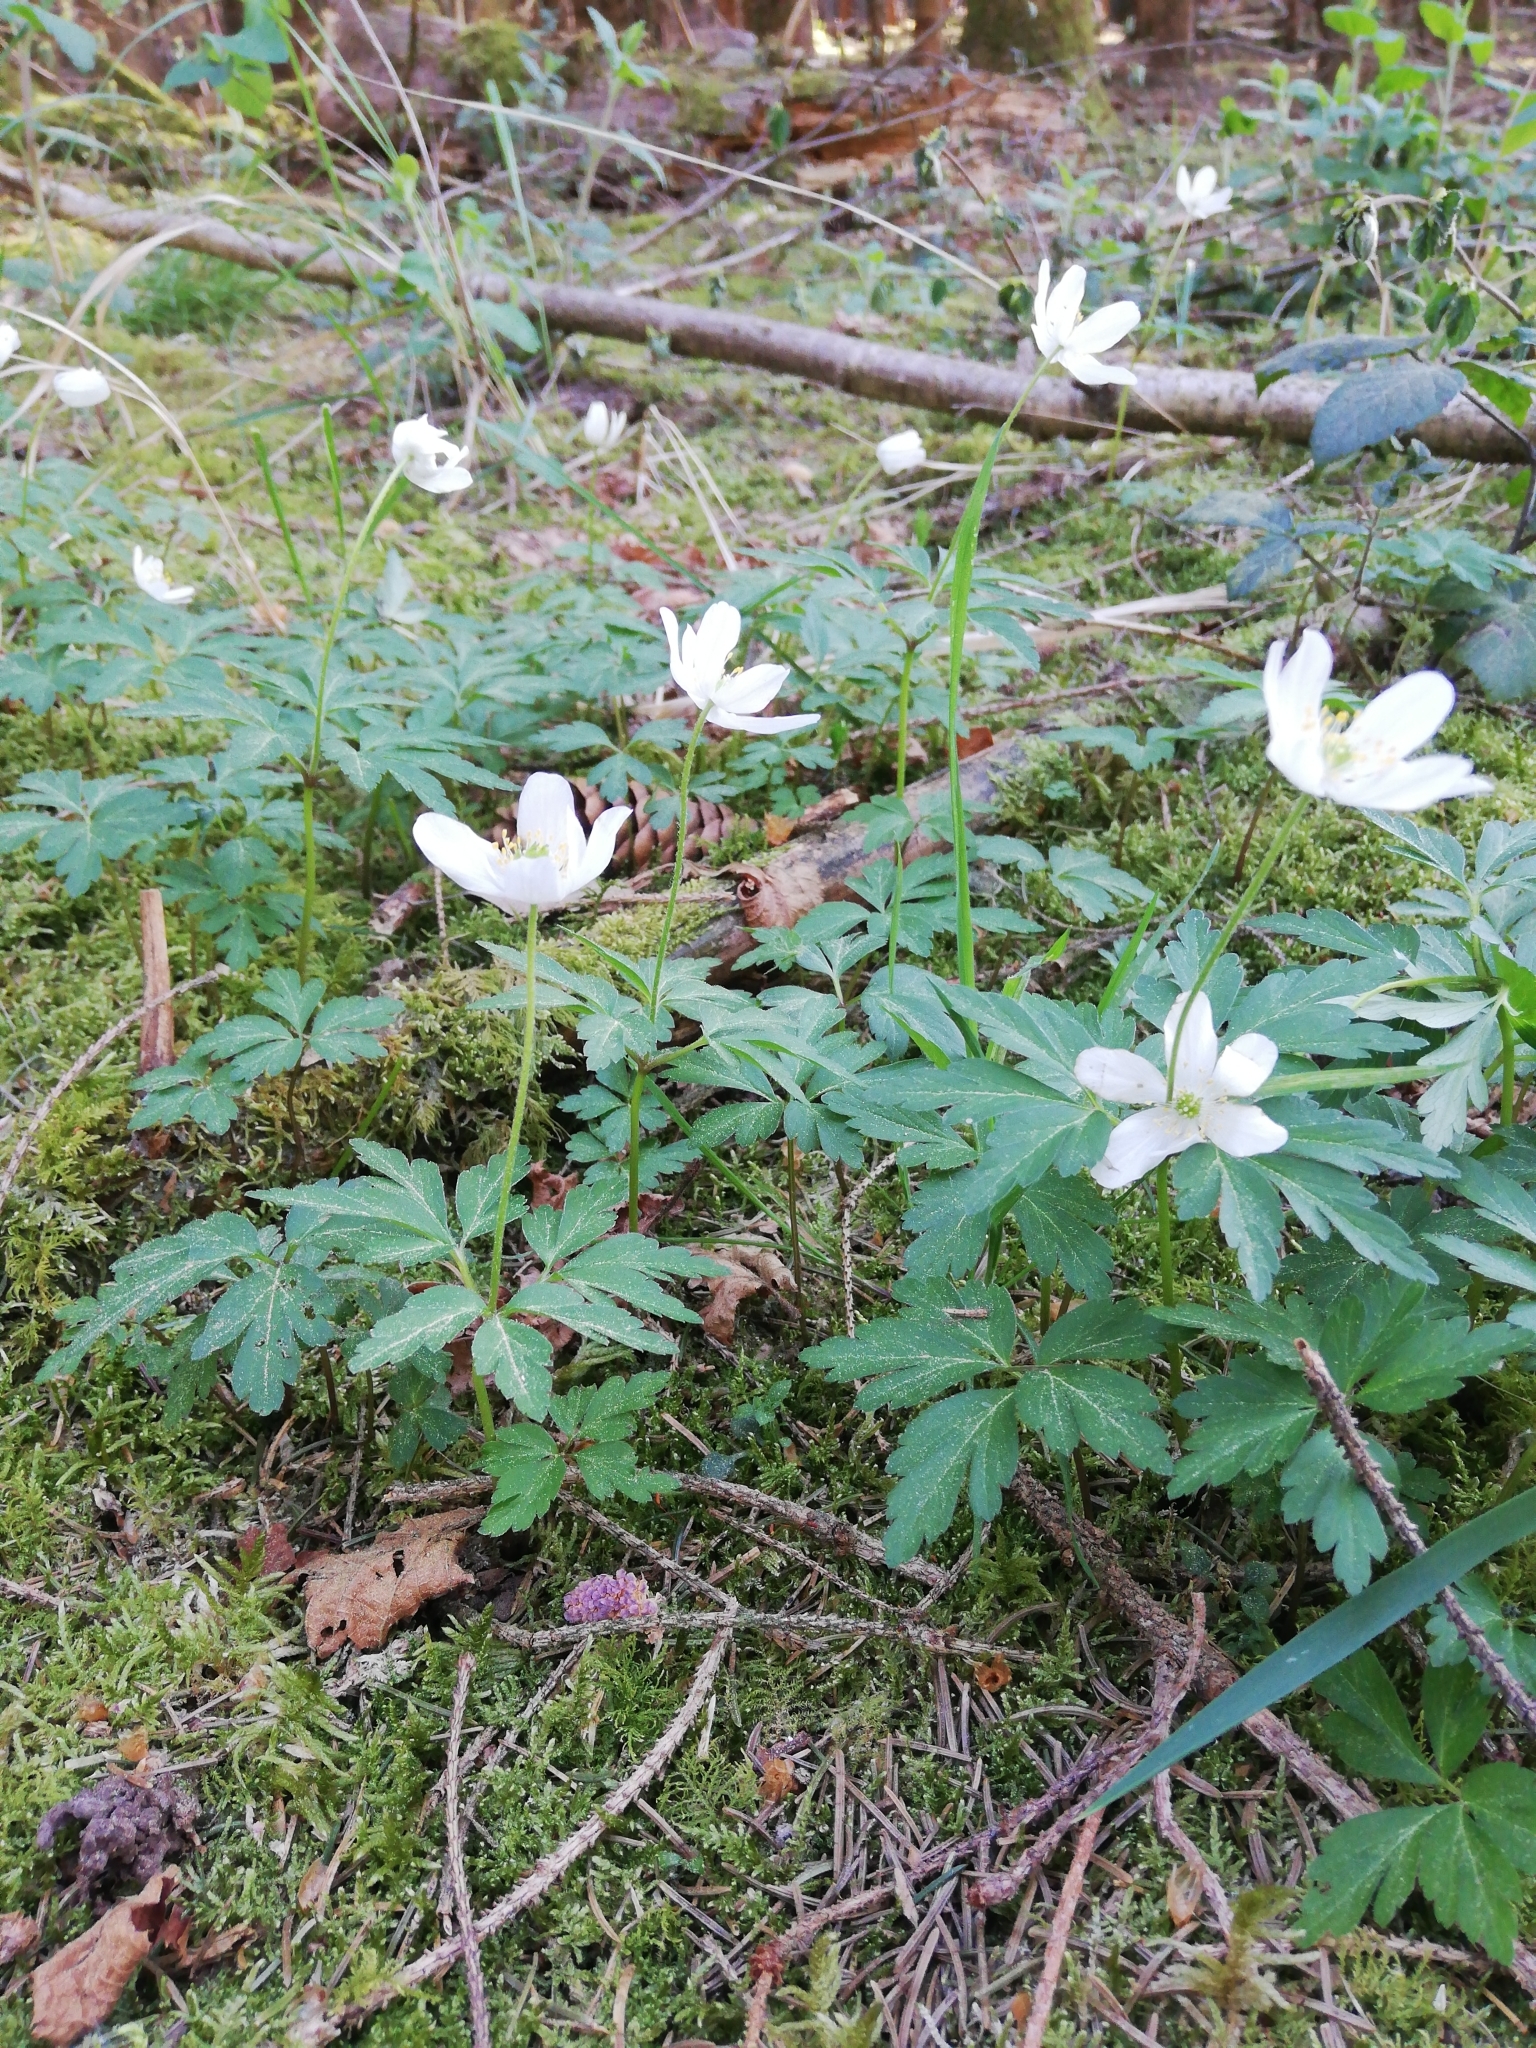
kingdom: Plantae
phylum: Tracheophyta
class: Magnoliopsida
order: Ranunculales
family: Ranunculaceae
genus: Anemone
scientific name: Anemone nemorosa
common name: Wood anemone
